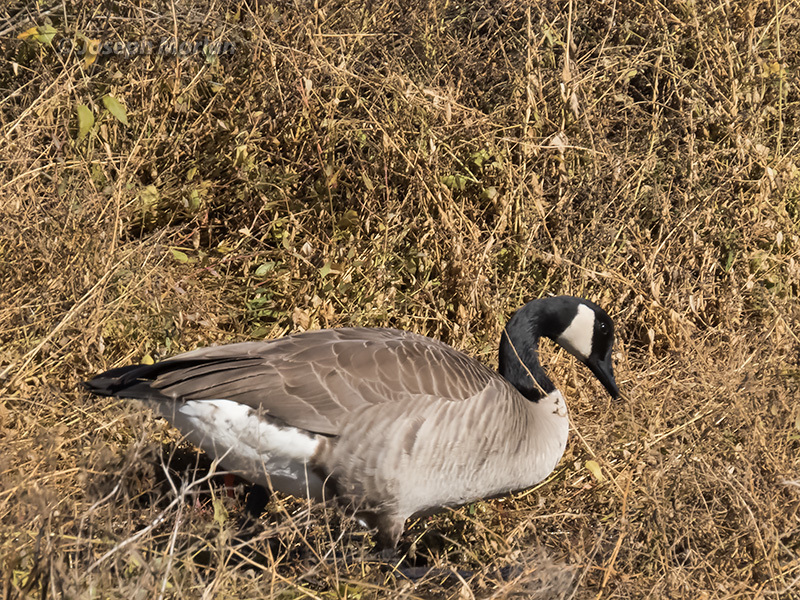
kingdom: Animalia
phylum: Chordata
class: Aves
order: Anseriformes
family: Anatidae
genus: Branta
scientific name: Branta canadensis
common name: Canada goose
